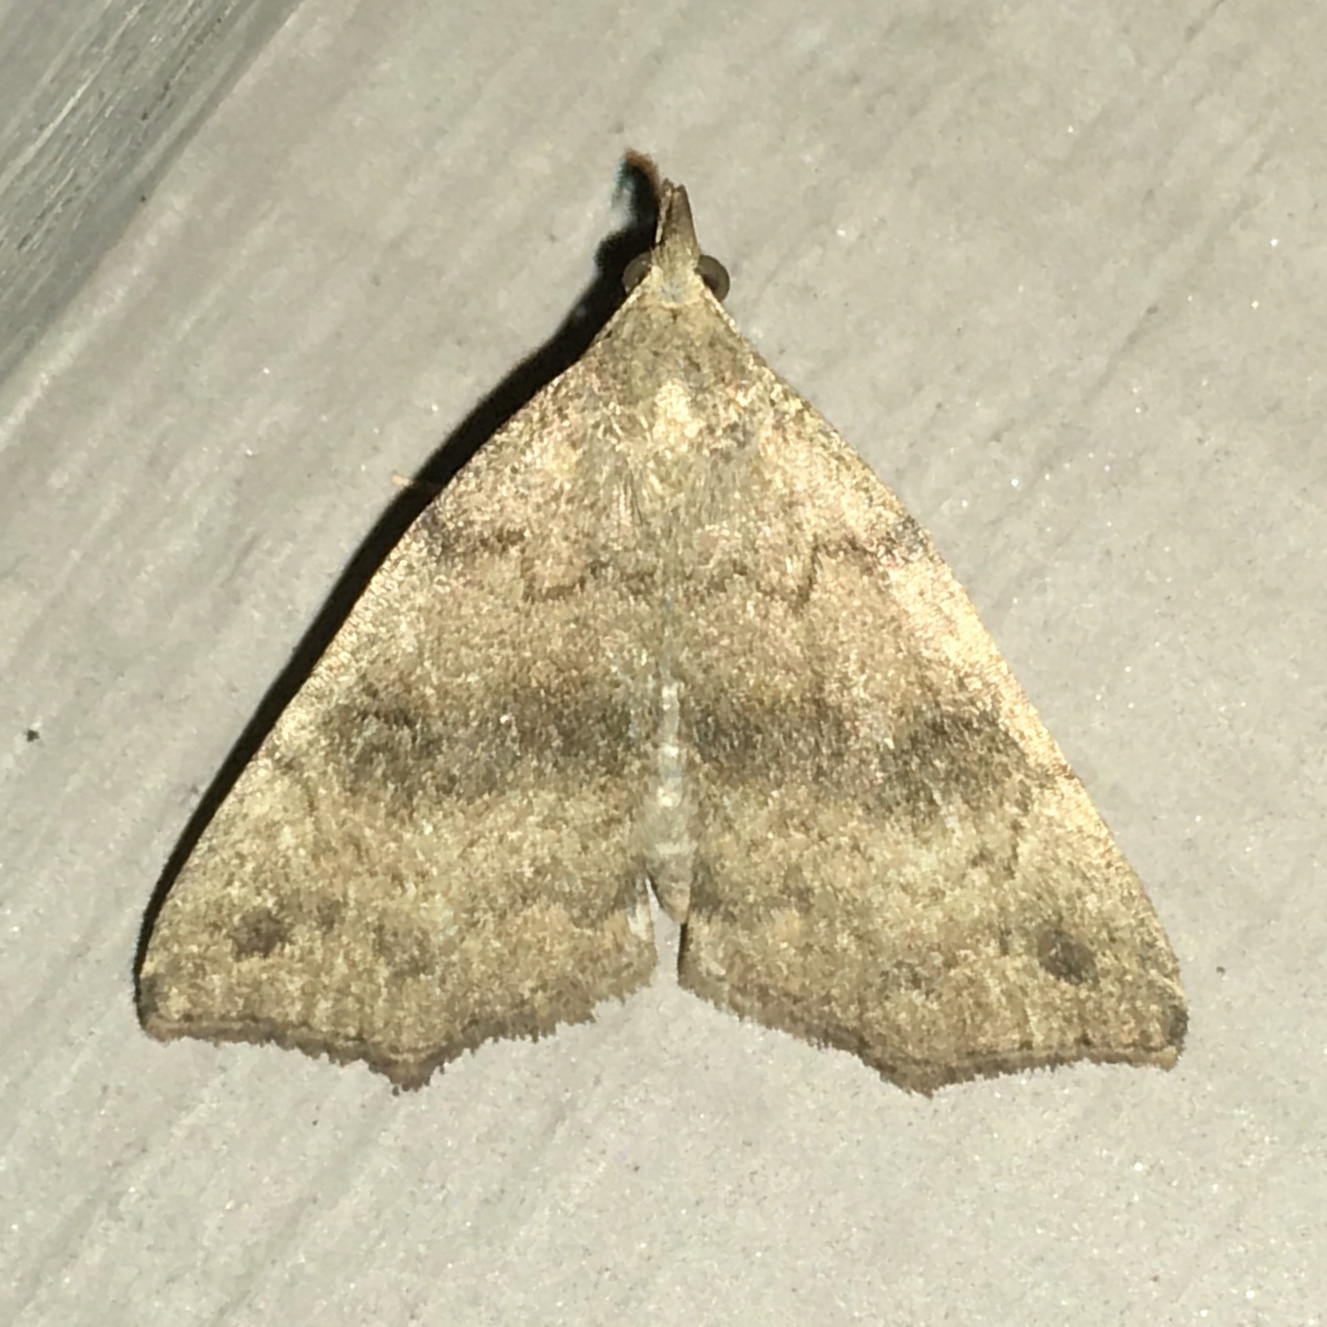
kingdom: Animalia
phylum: Arthropoda
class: Insecta
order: Lepidoptera
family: Erebidae
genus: Phalaenostola
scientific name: Phalaenostola eumelusalis
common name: Dark phalaenostola moth
